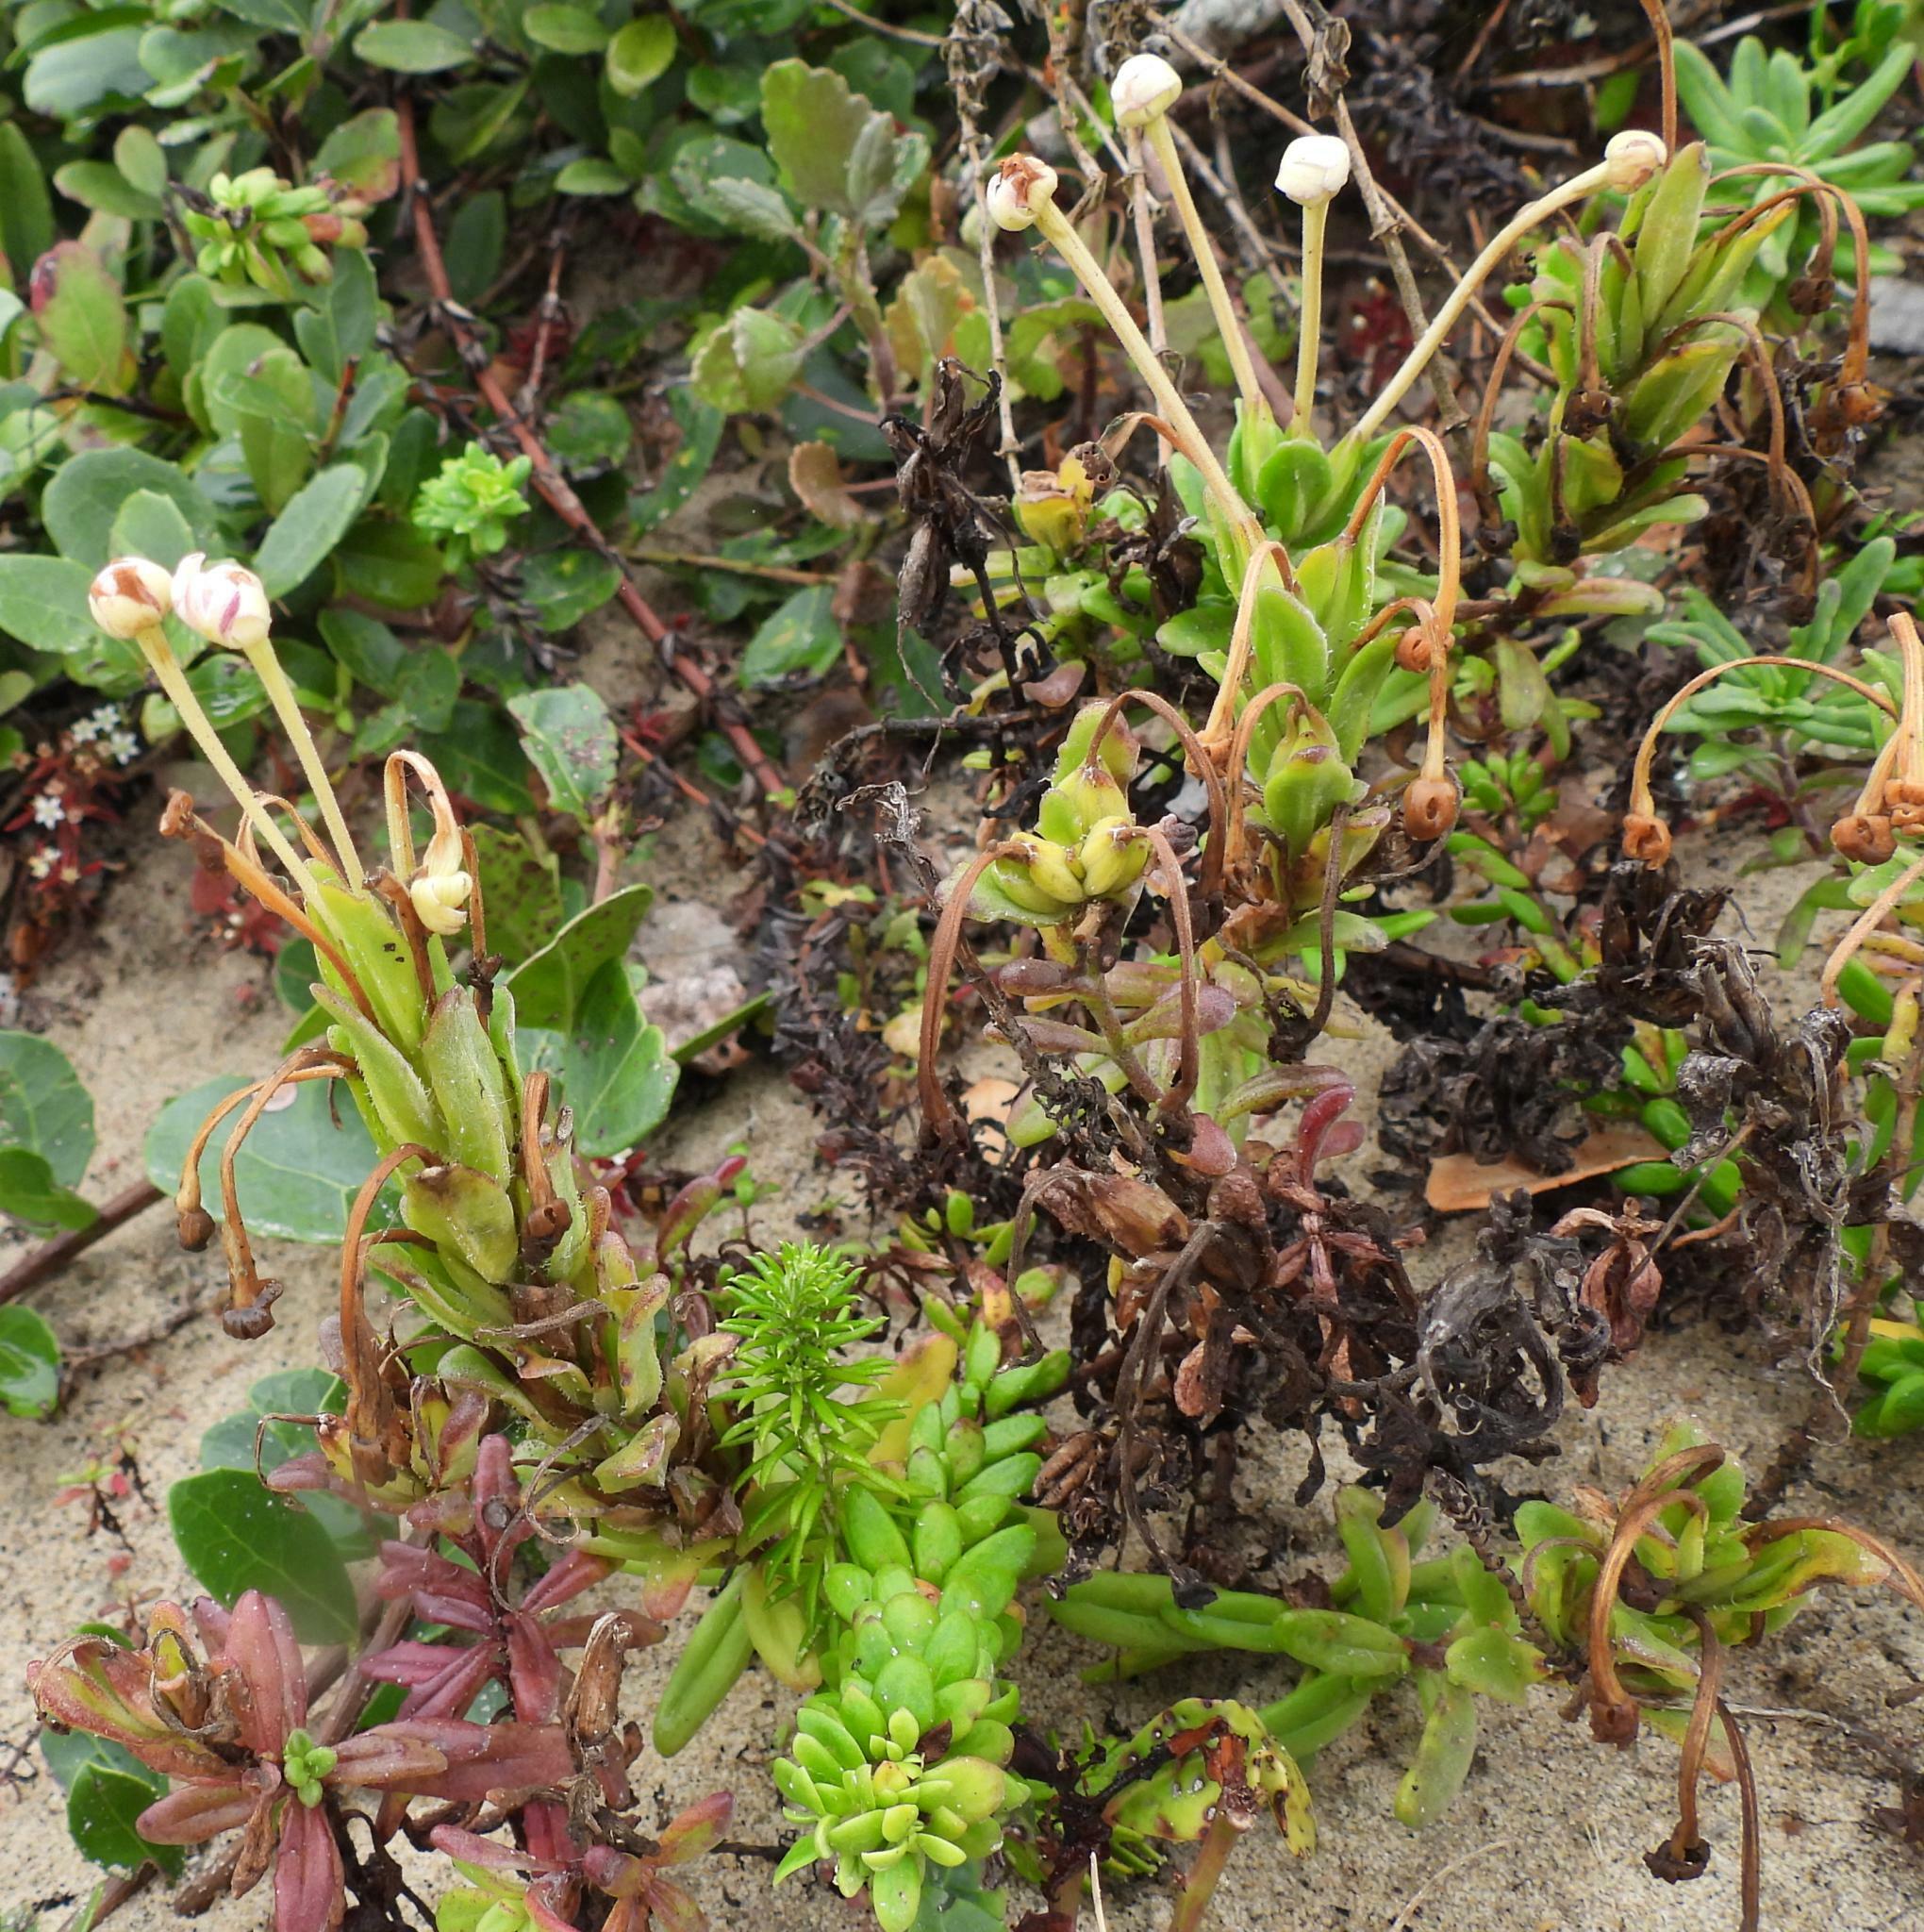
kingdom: Plantae
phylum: Tracheophyta
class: Magnoliopsida
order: Lamiales
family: Scrophulariaceae
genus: Zaluzianskya
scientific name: Zaluzianskya maritima
